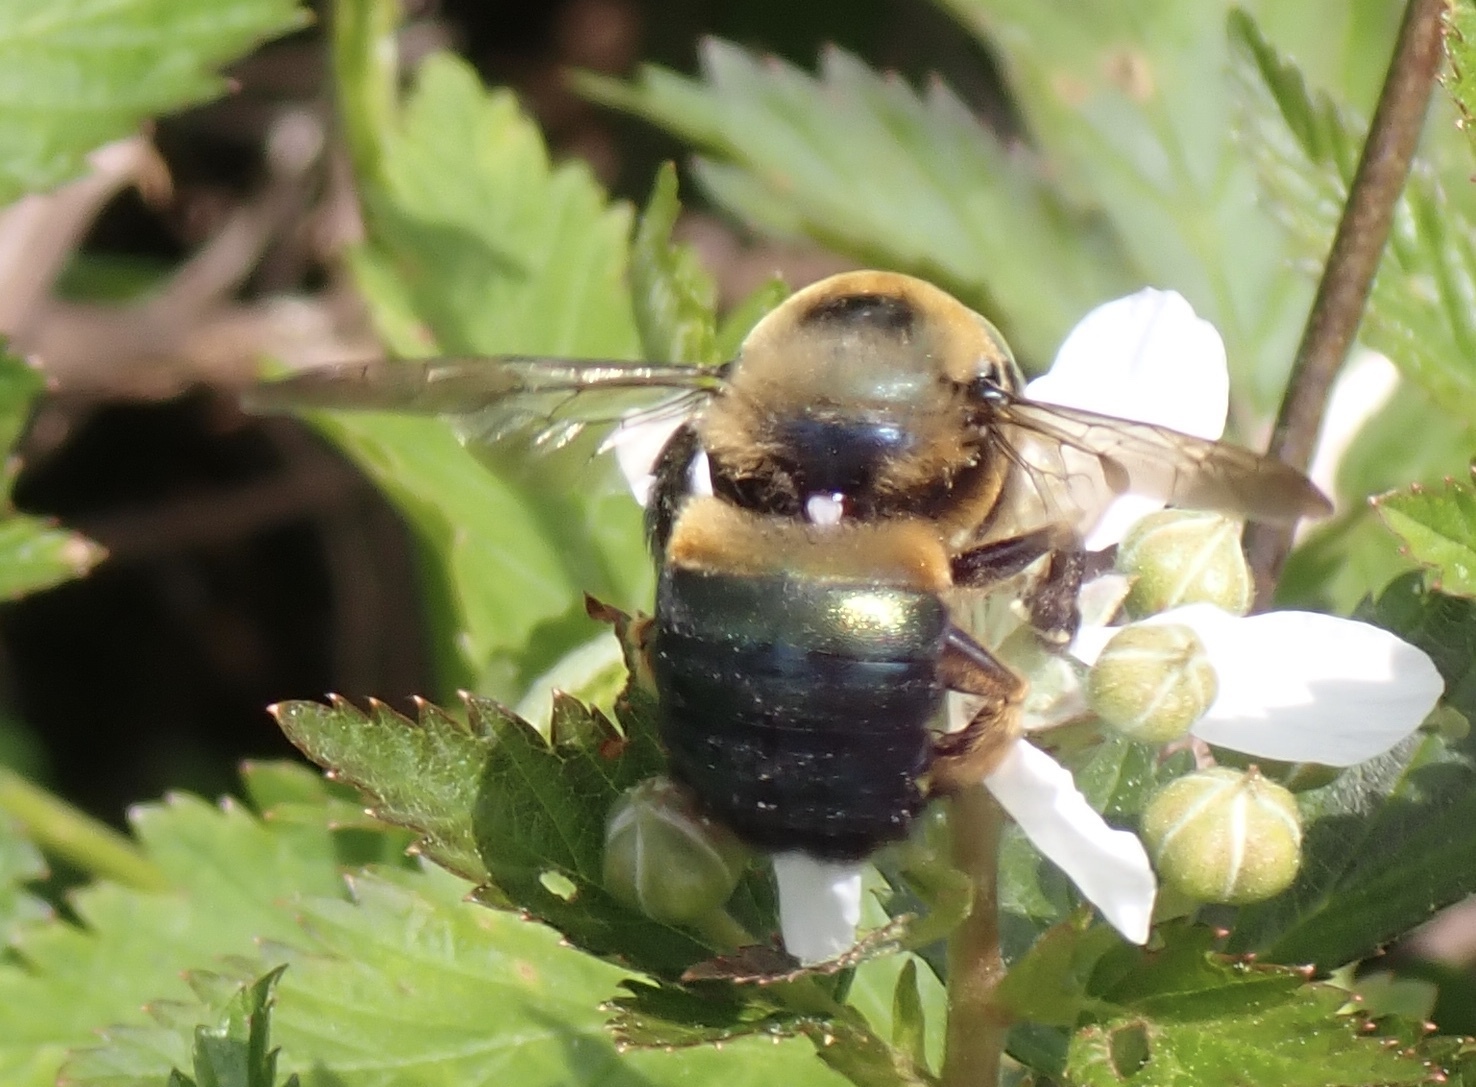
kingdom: Animalia
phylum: Arthropoda
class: Insecta
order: Hymenoptera
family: Apidae
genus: Xylocopa
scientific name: Xylocopa micans
